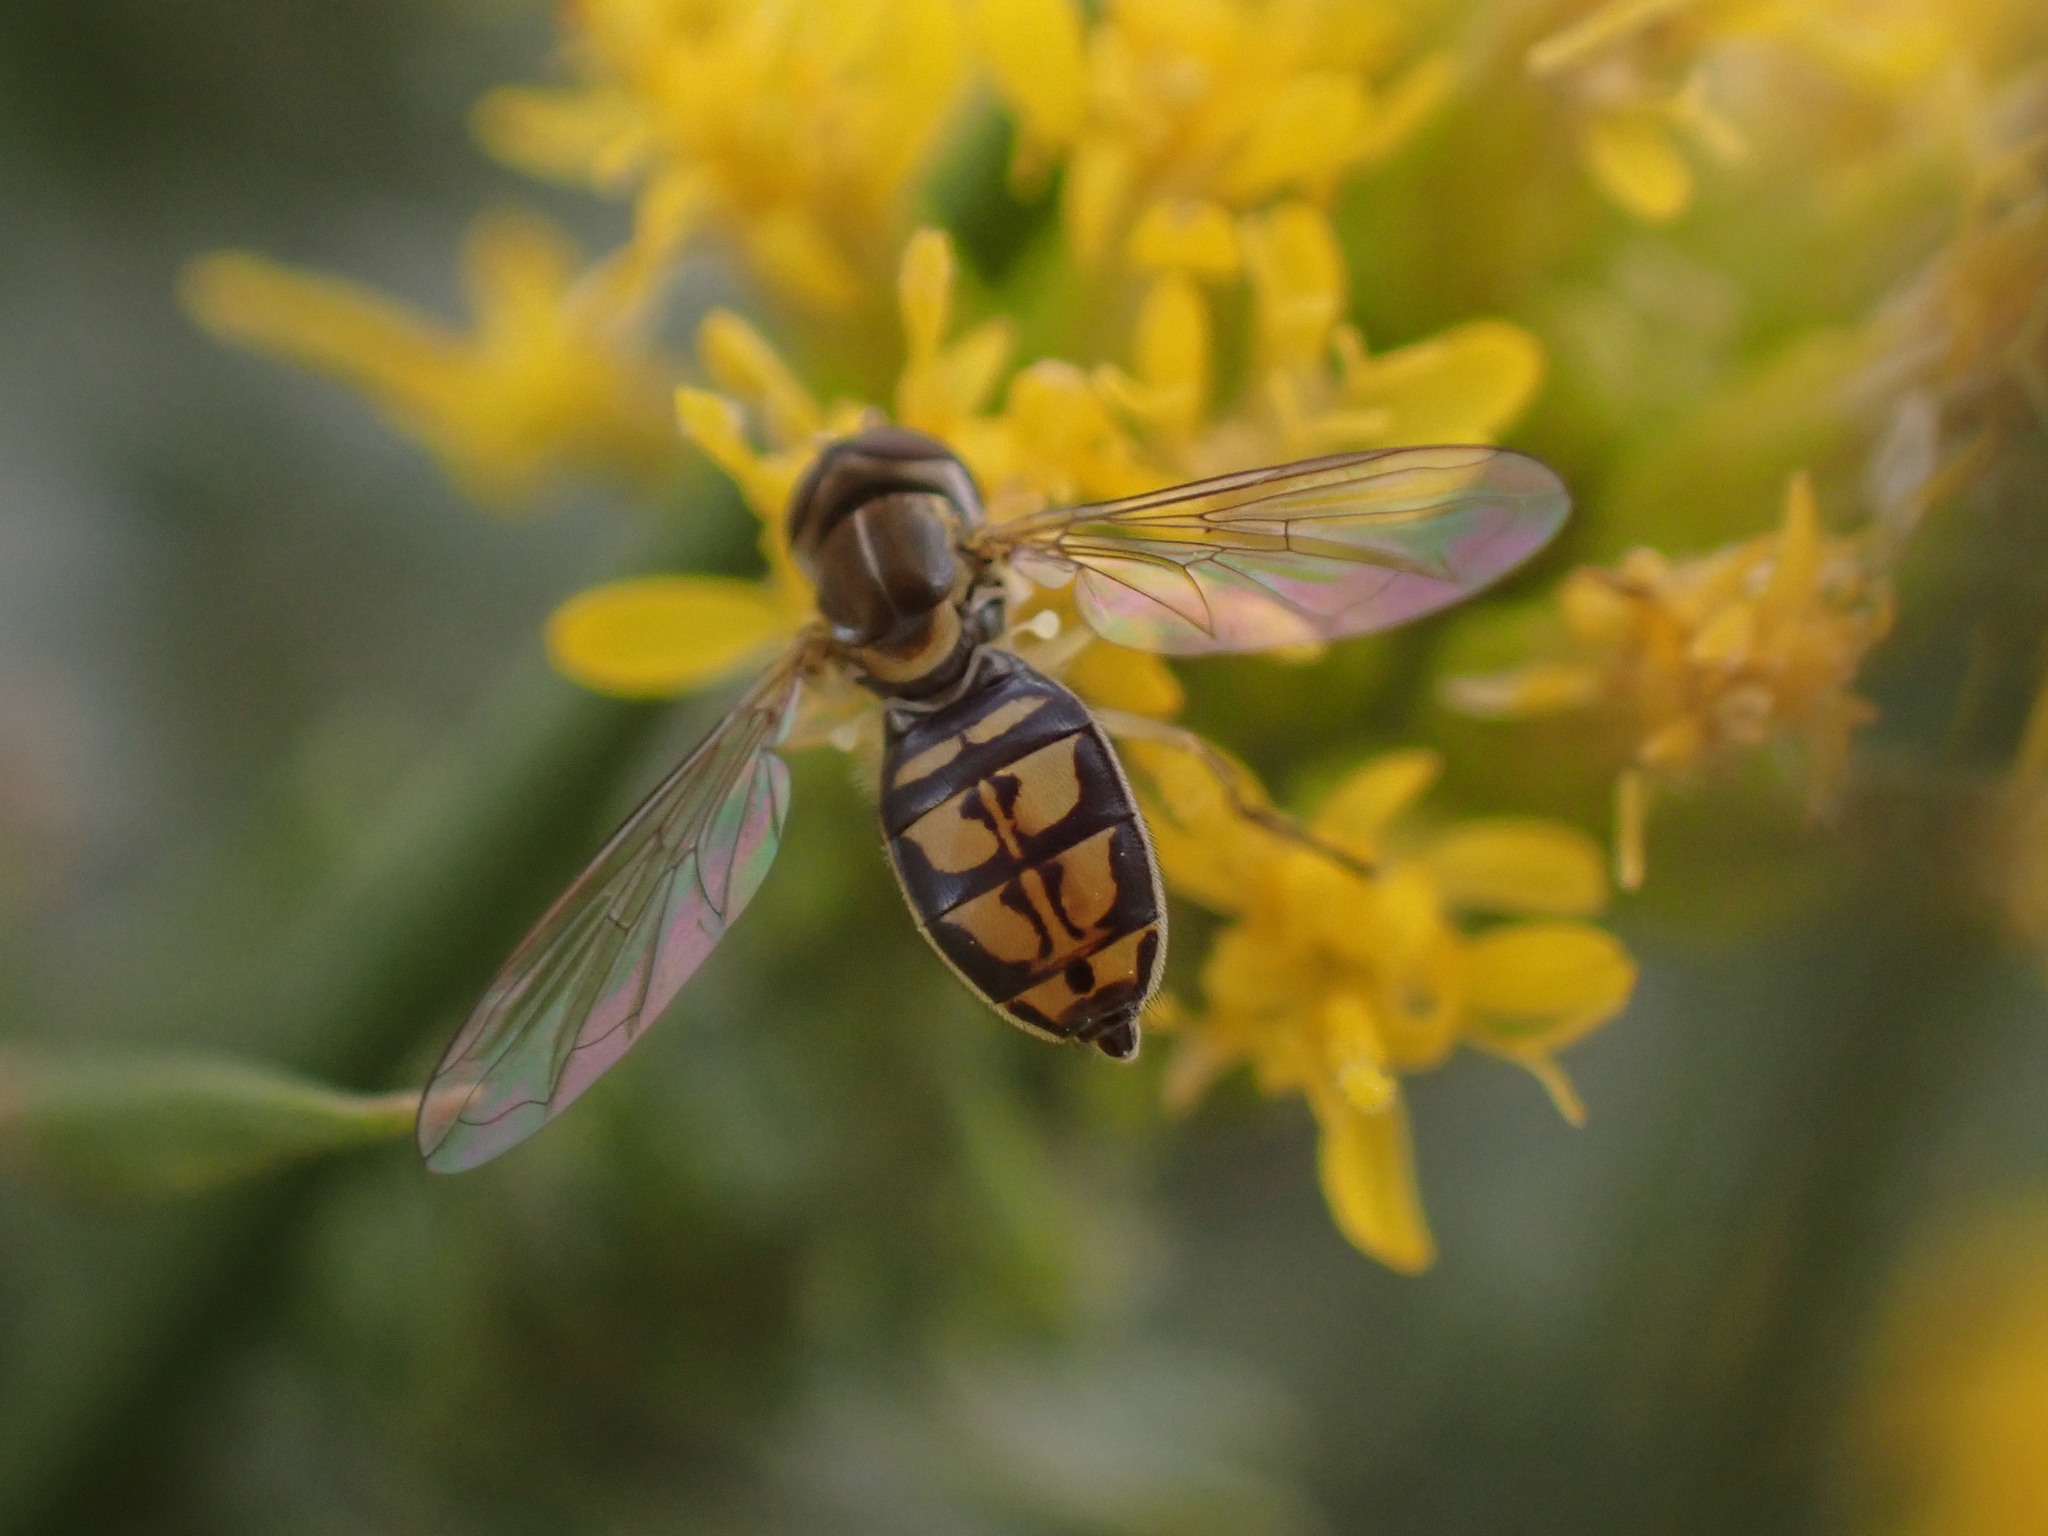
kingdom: Animalia
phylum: Arthropoda
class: Insecta
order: Diptera
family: Syrphidae
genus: Toxomerus
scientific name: Toxomerus marginatus
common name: Syrphid fly
